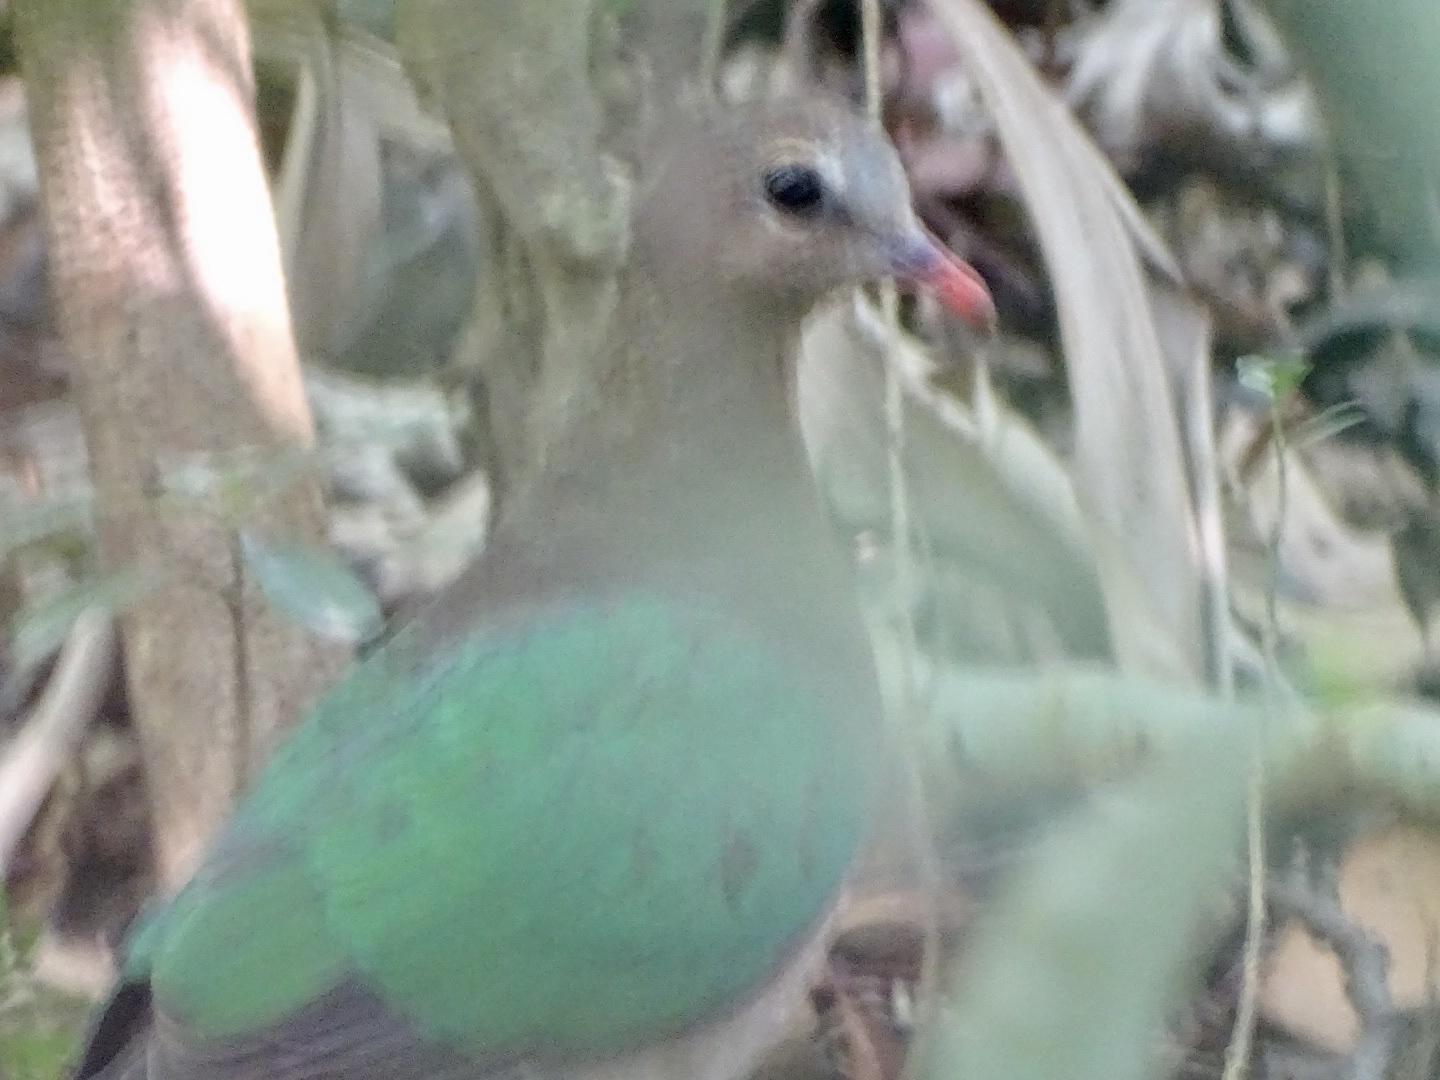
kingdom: Animalia
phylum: Chordata
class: Aves
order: Columbiformes
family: Columbidae
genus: Chalcophaps
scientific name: Chalcophaps indica
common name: Common emerald dove
